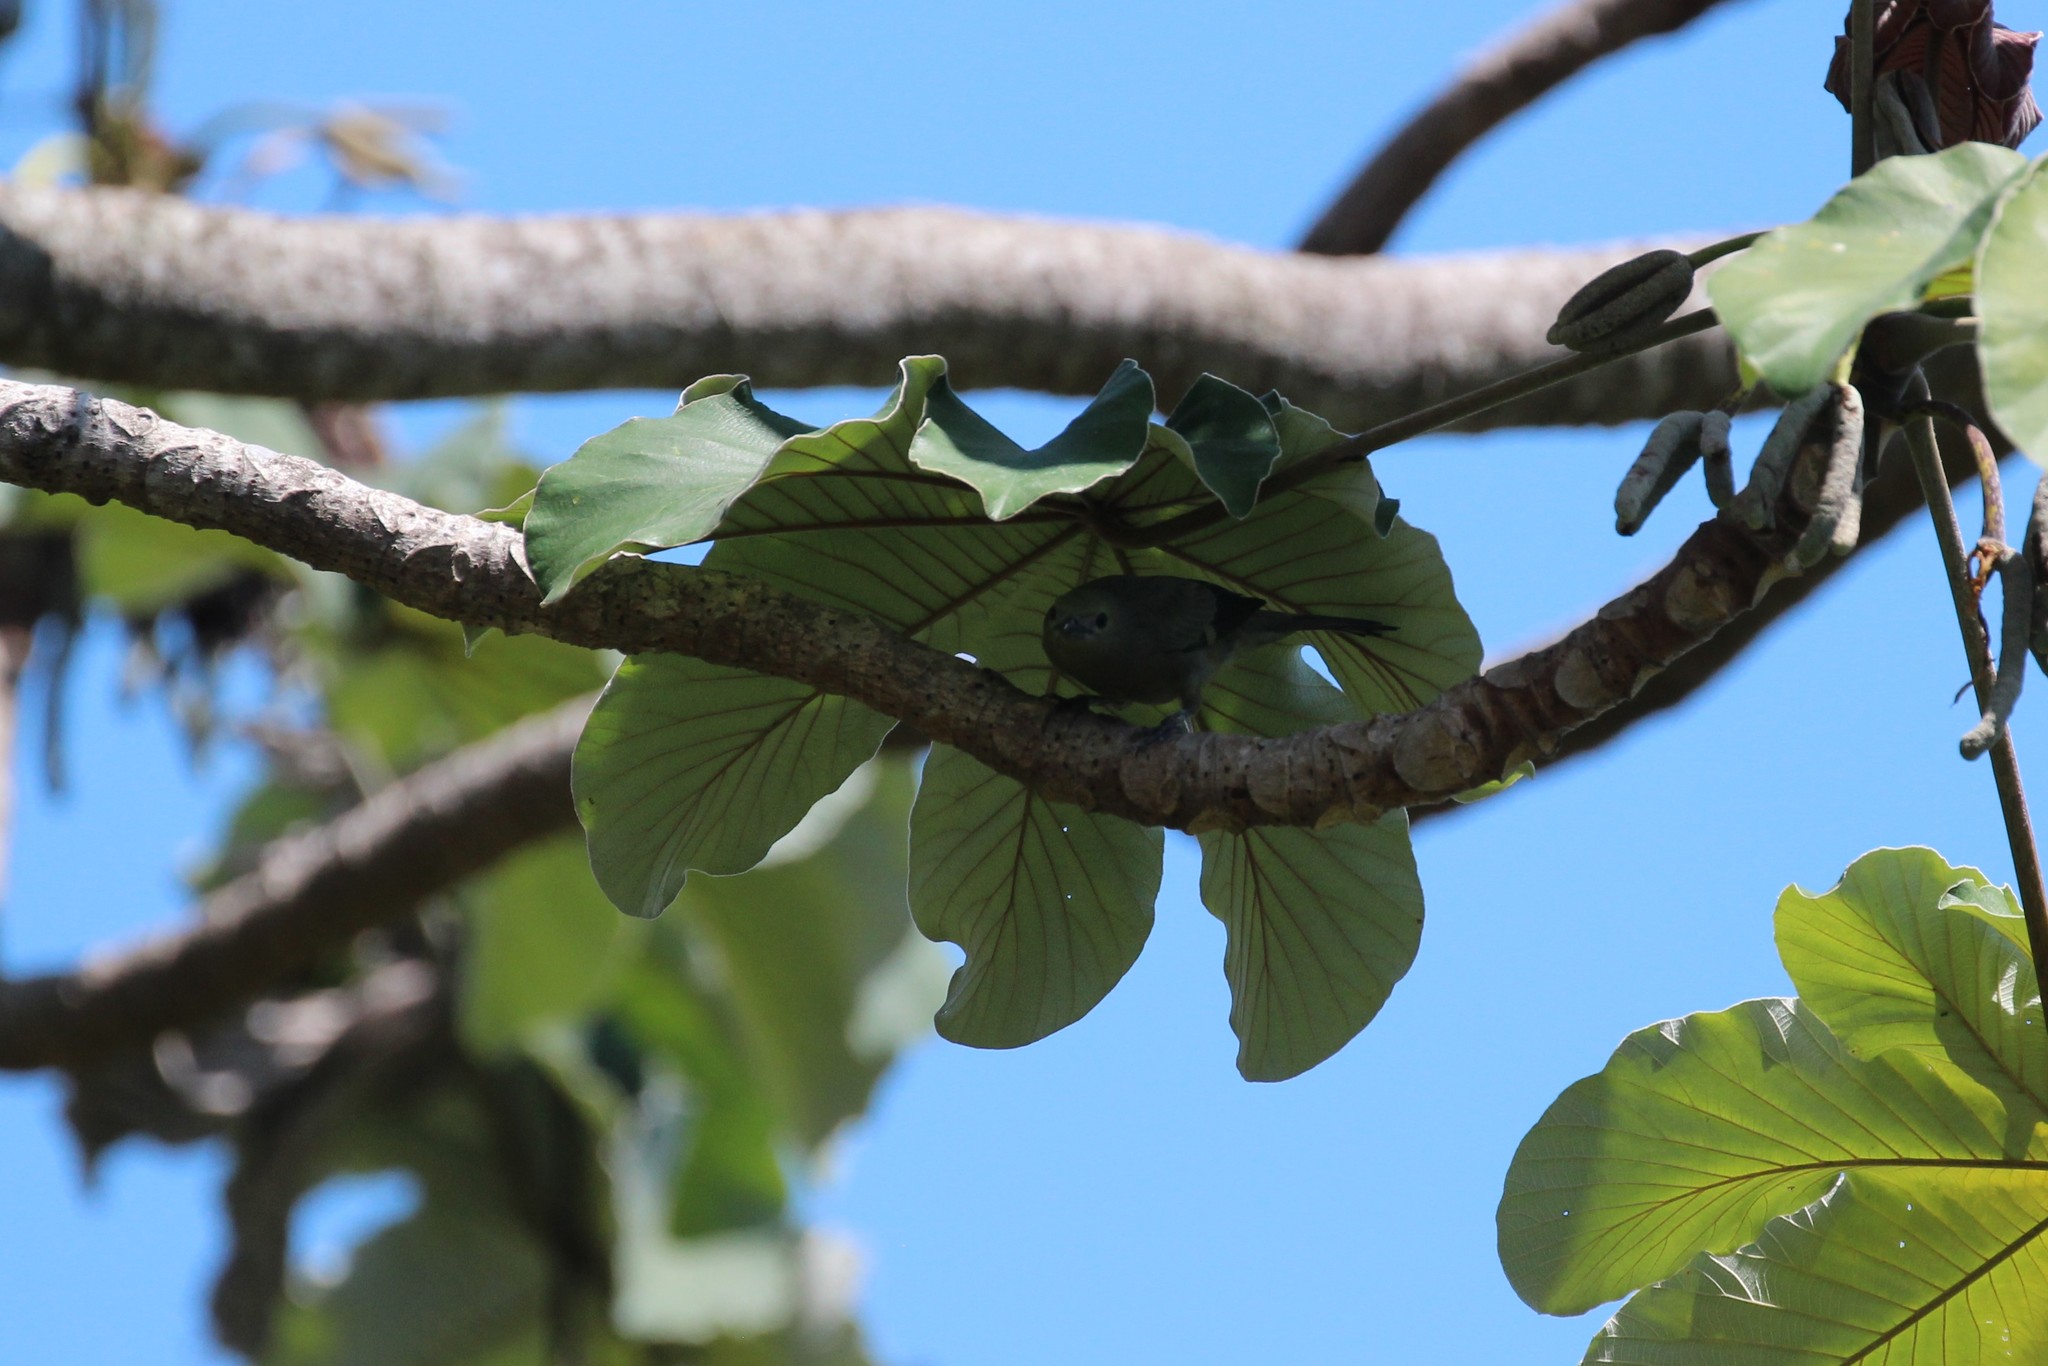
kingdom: Animalia
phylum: Chordata
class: Aves
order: Passeriformes
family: Thraupidae
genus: Thraupis
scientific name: Thraupis palmarum
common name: Palm tanager
